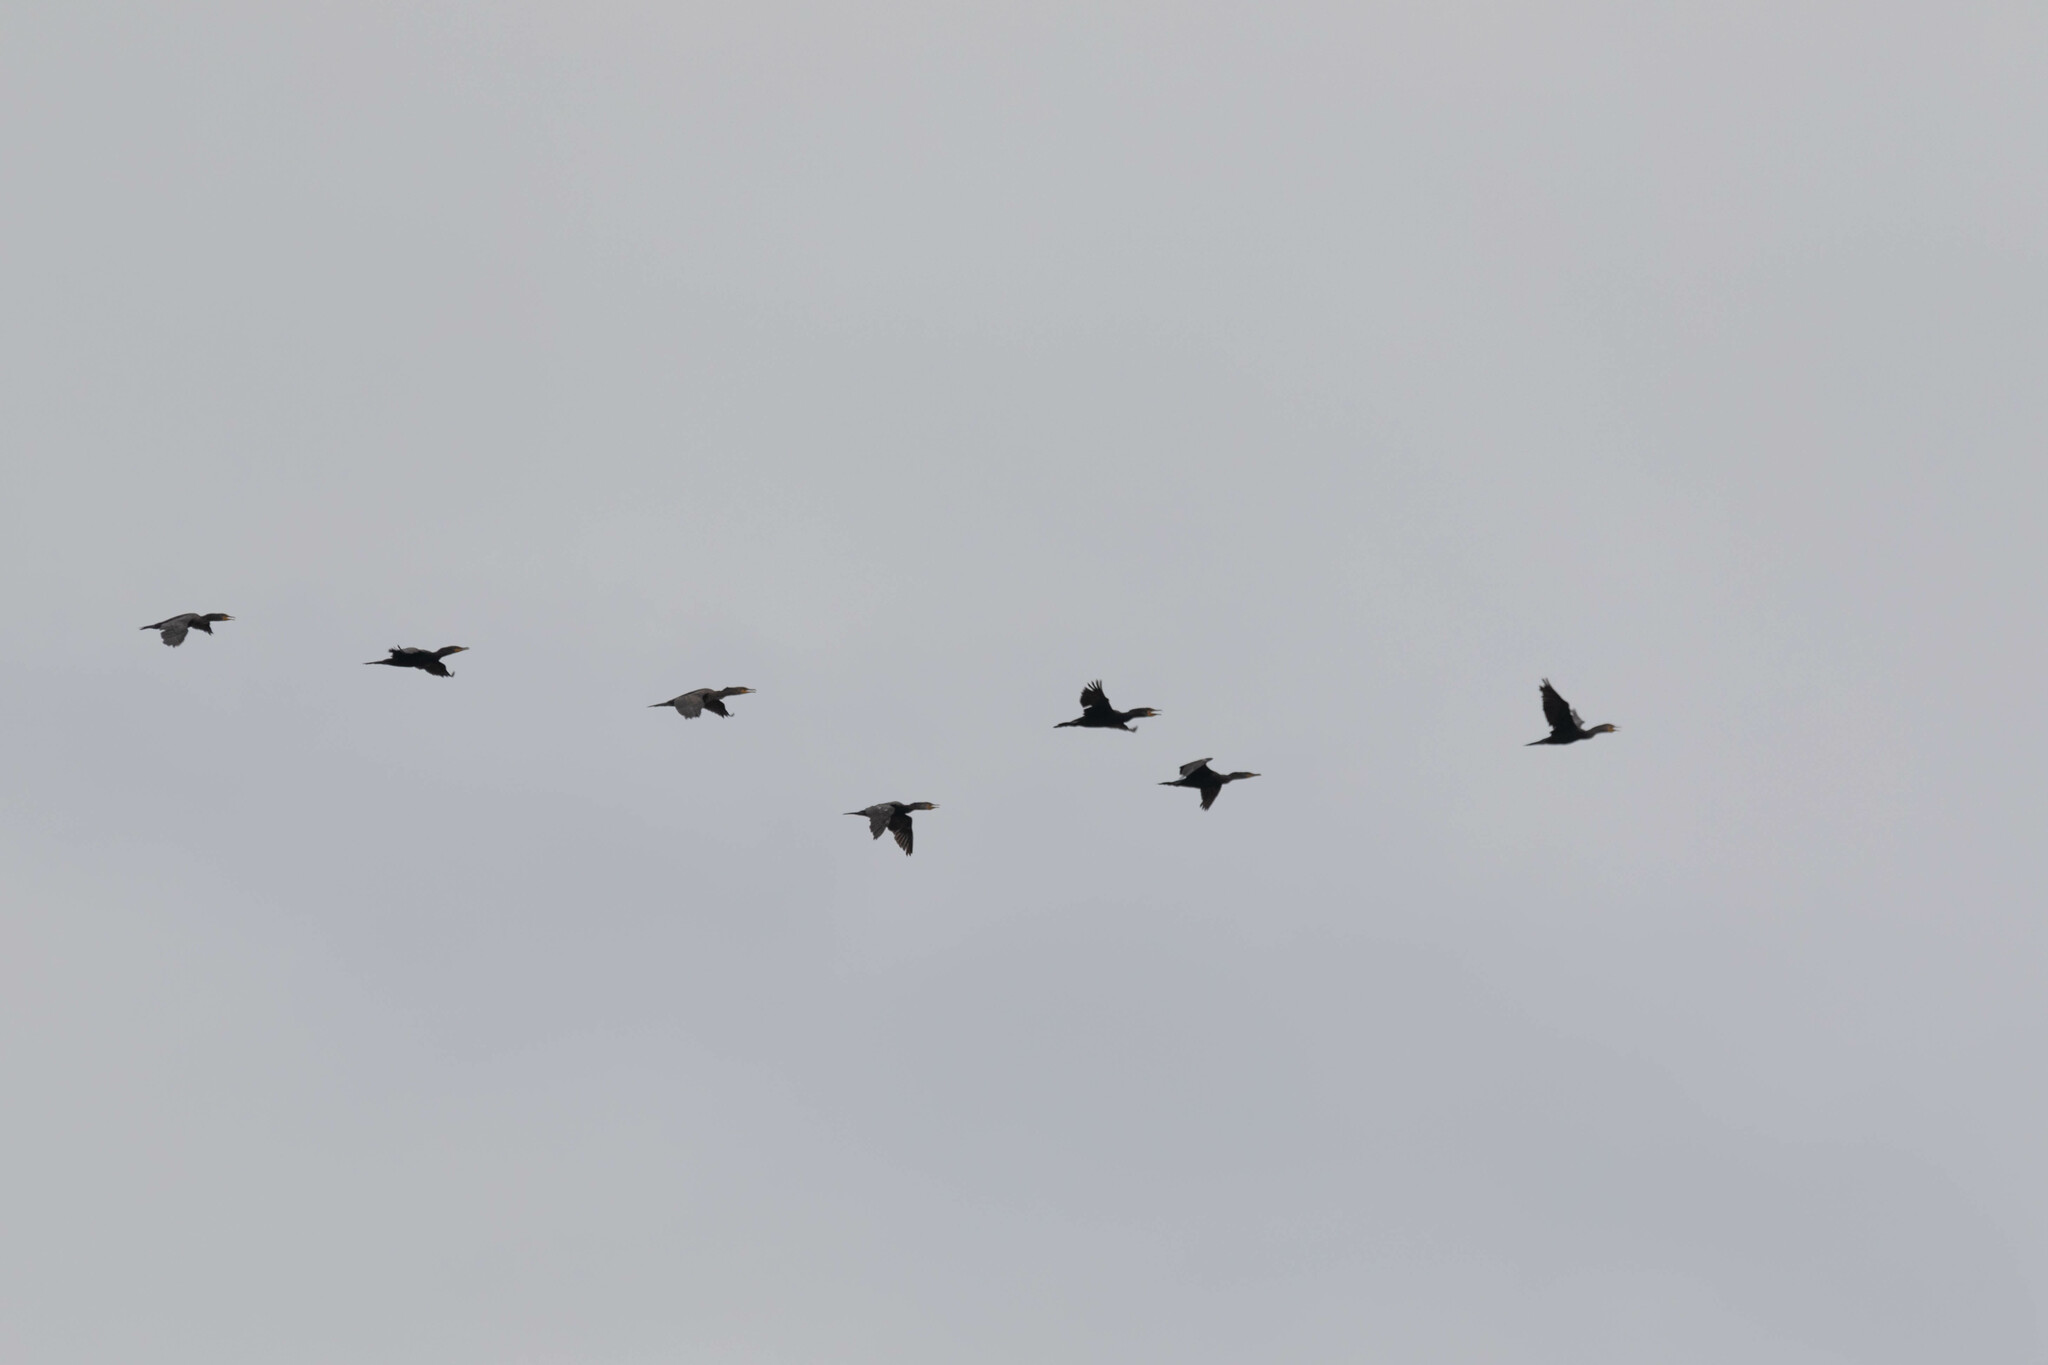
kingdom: Animalia
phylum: Chordata
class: Aves
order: Suliformes
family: Phalacrocoracidae
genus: Phalacrocorax
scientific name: Phalacrocorax auritus
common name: Double-crested cormorant
